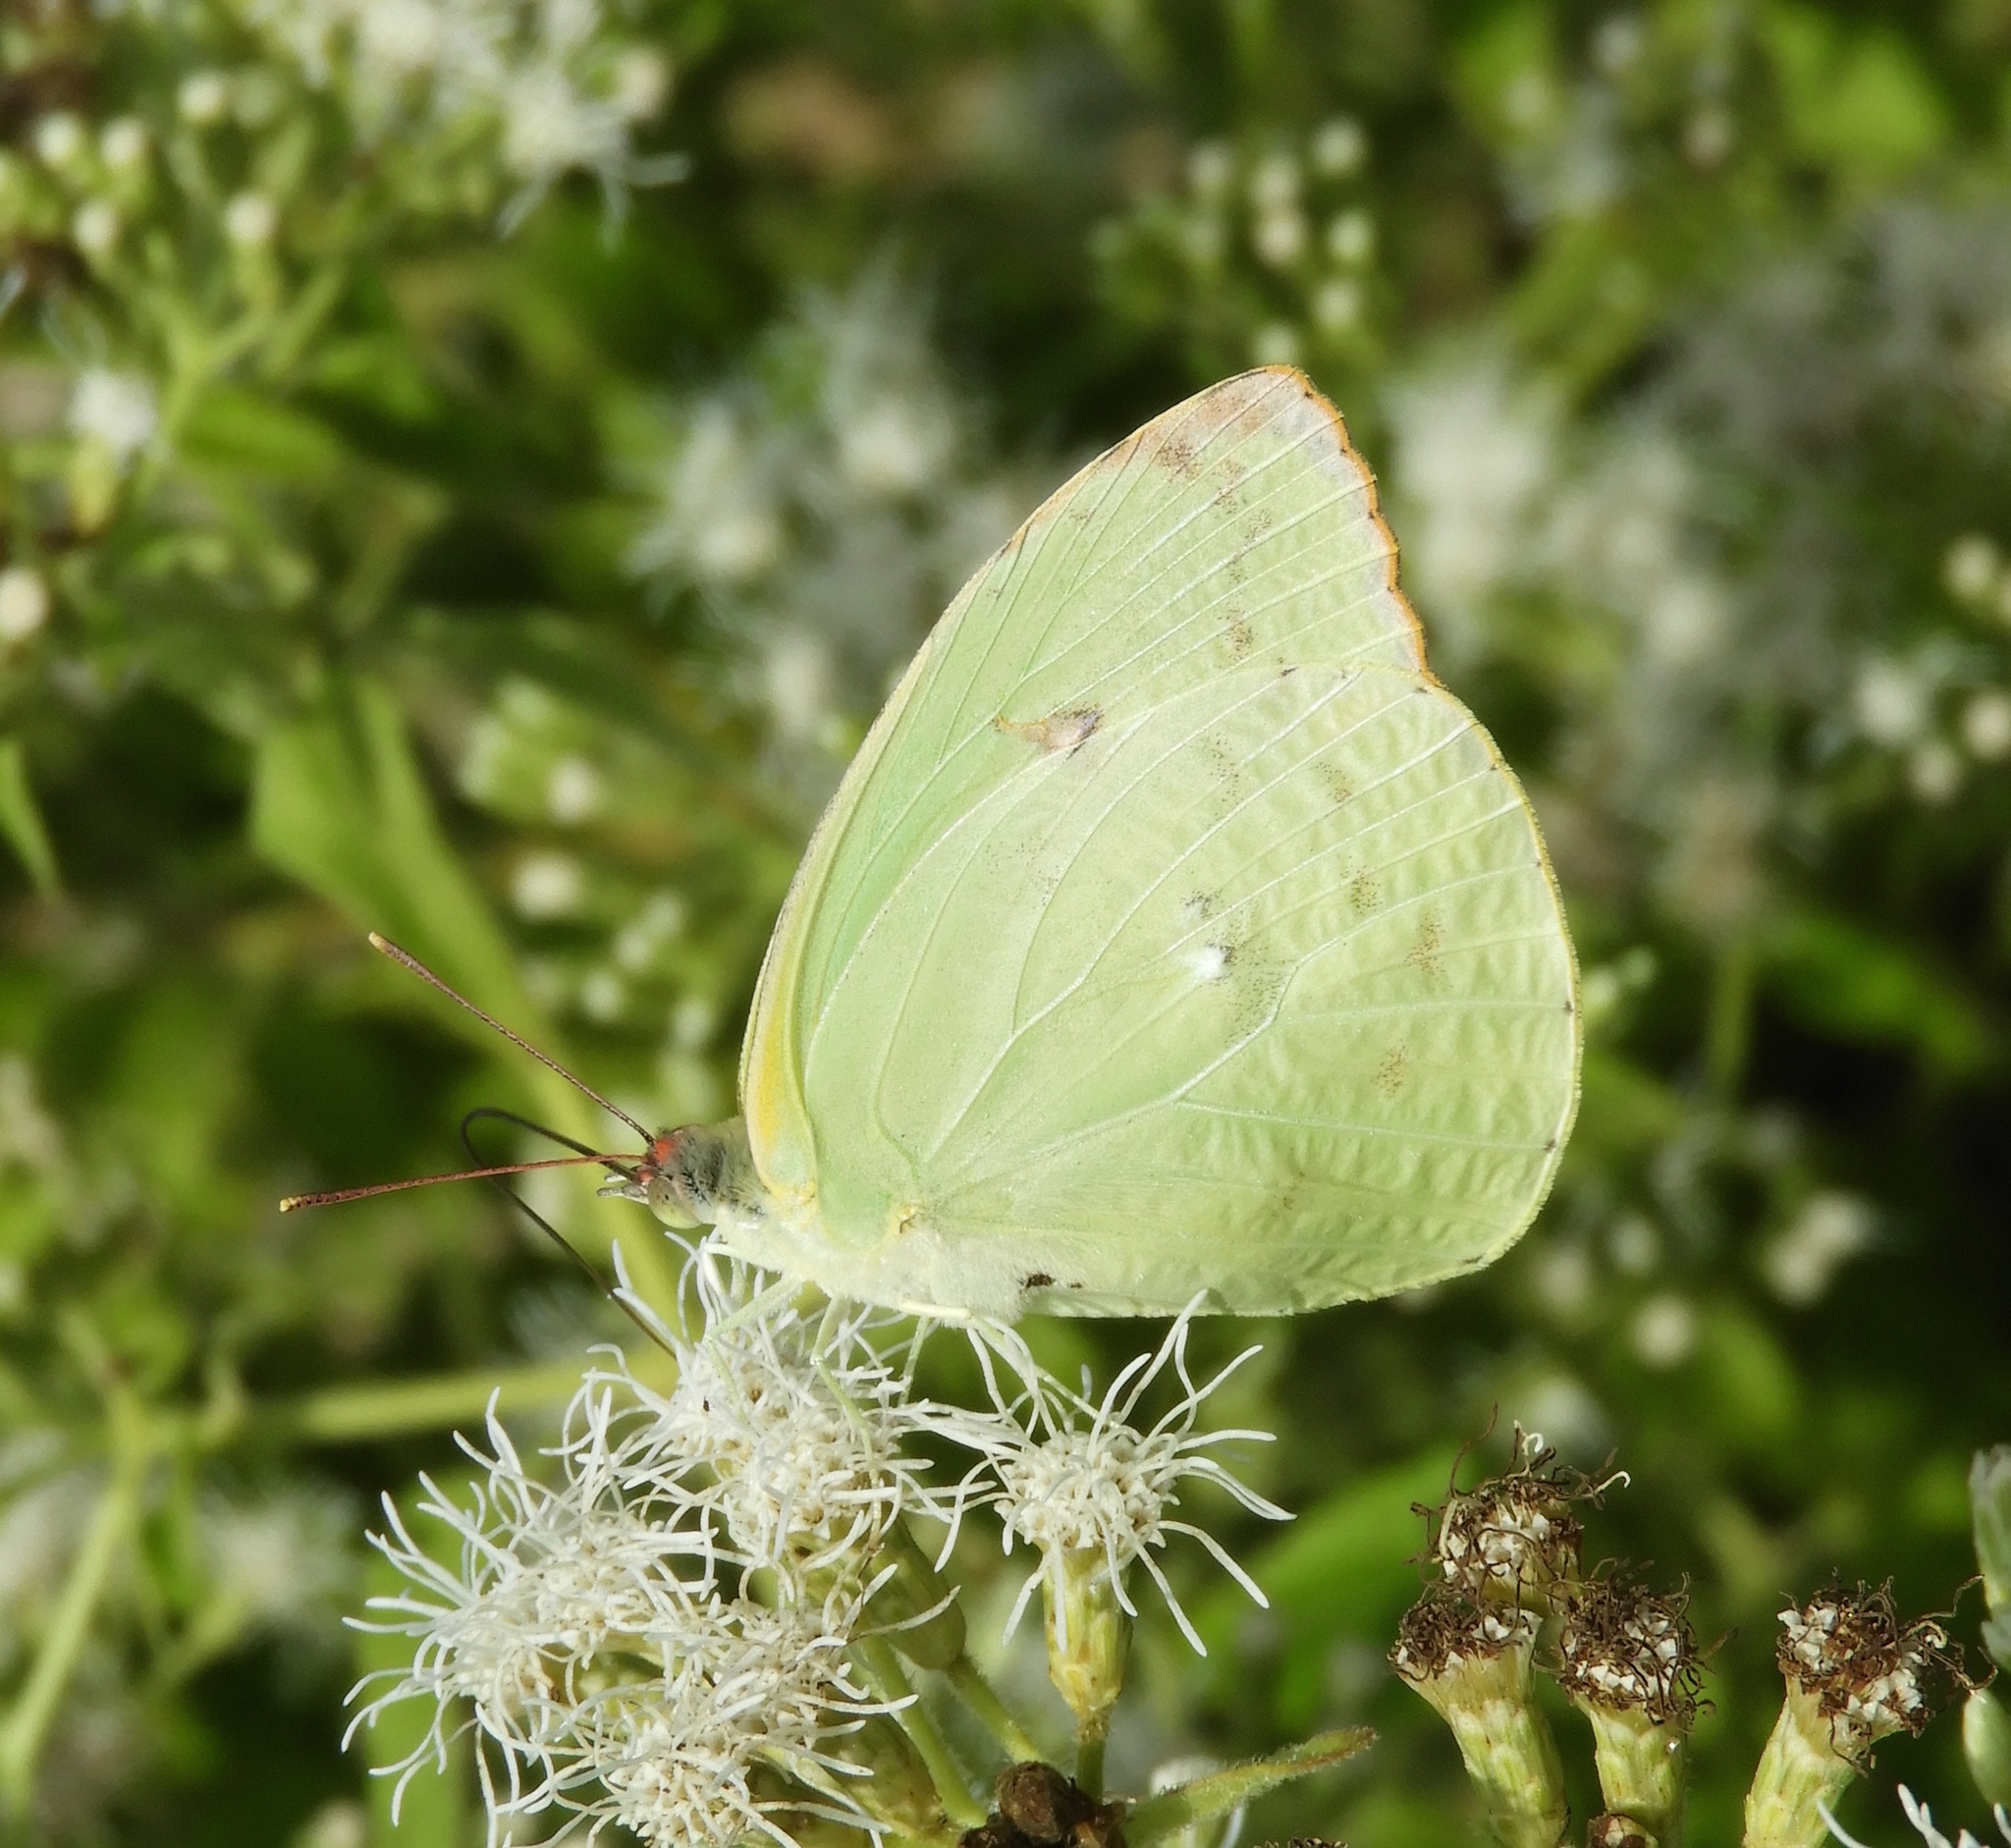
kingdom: Animalia
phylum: Arthropoda
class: Insecta
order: Lepidoptera
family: Pieridae
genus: Aphrissa
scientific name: Aphrissa statira
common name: Statira sulphur
